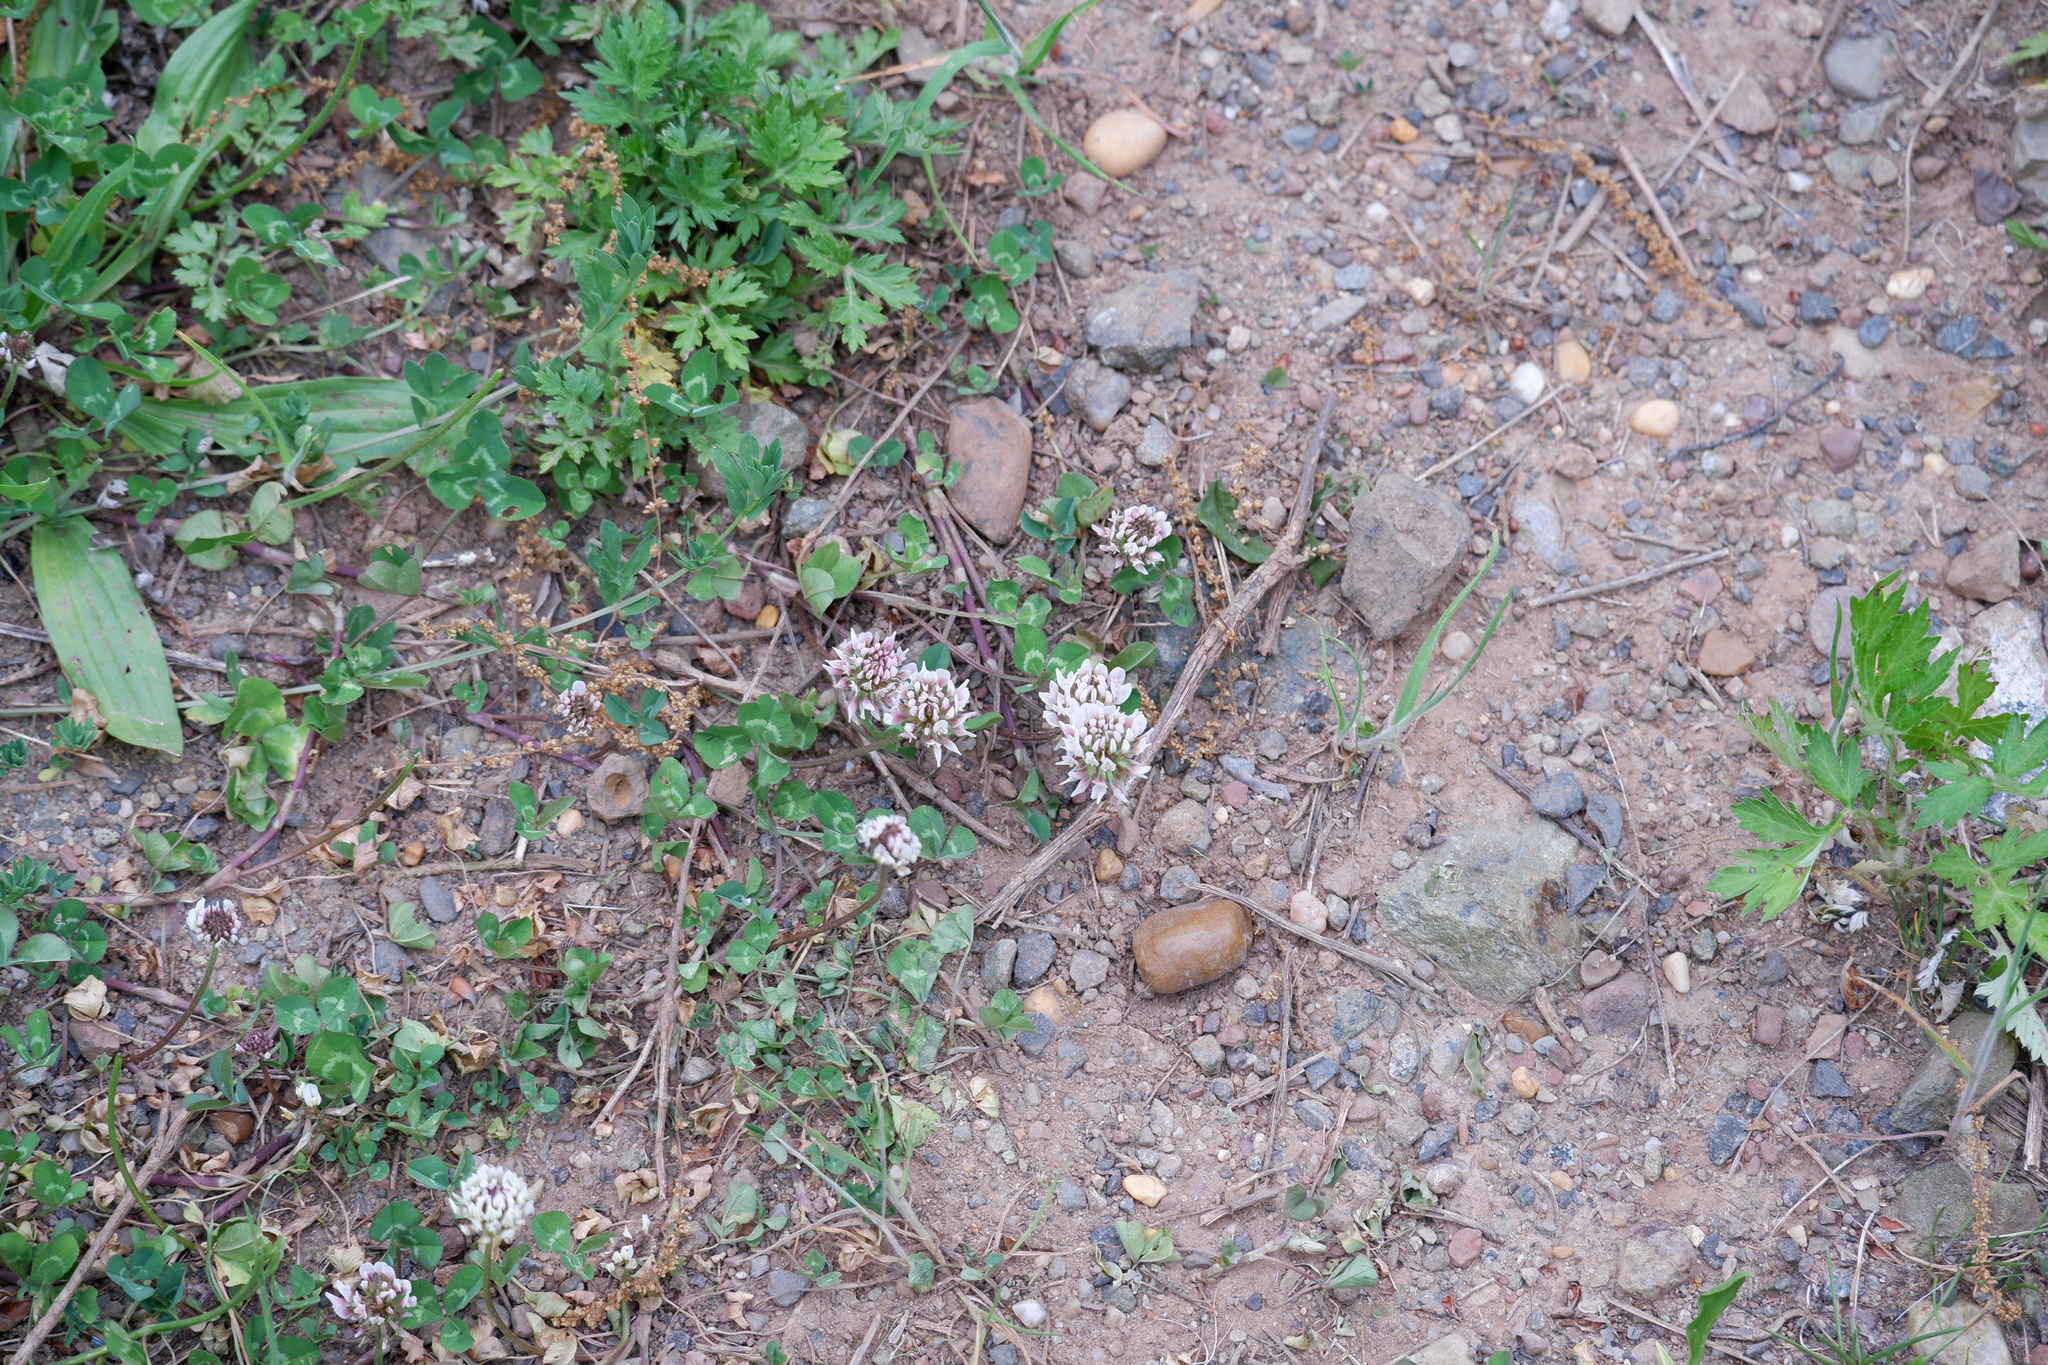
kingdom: Plantae
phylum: Tracheophyta
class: Magnoliopsida
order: Fabales
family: Fabaceae
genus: Trifolium
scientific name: Trifolium repens
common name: White clover
